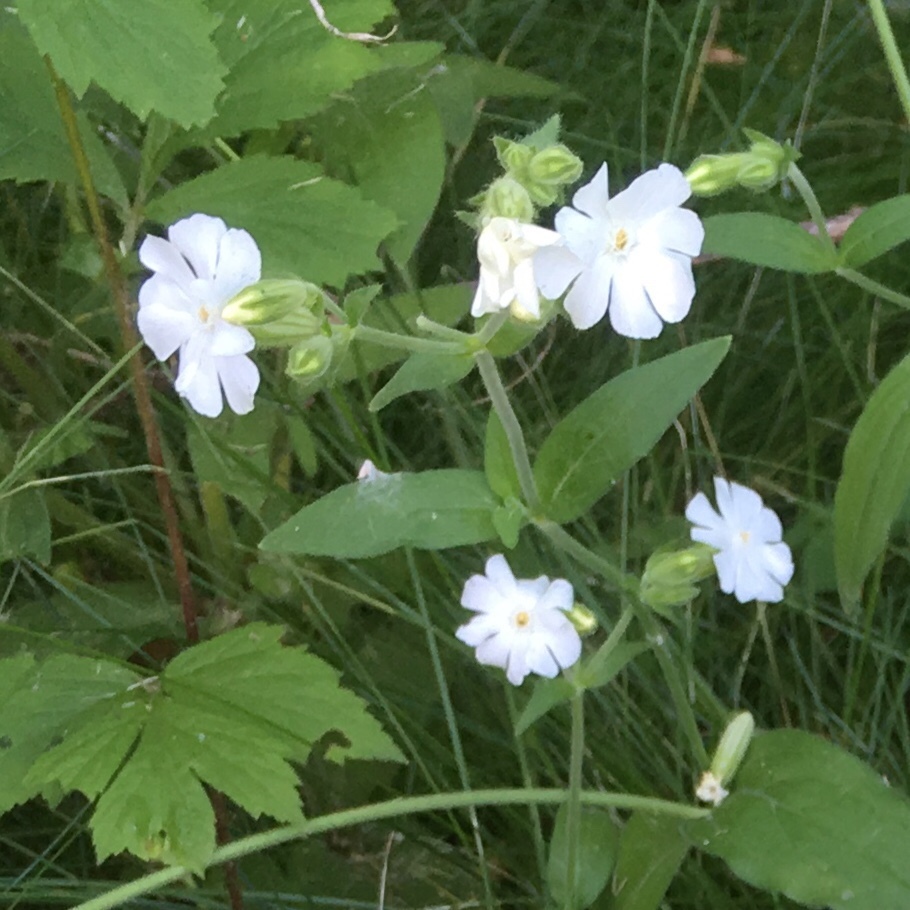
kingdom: Plantae
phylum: Tracheophyta
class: Magnoliopsida
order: Caryophyllales
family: Caryophyllaceae
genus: Silene
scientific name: Silene latifolia
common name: White campion
